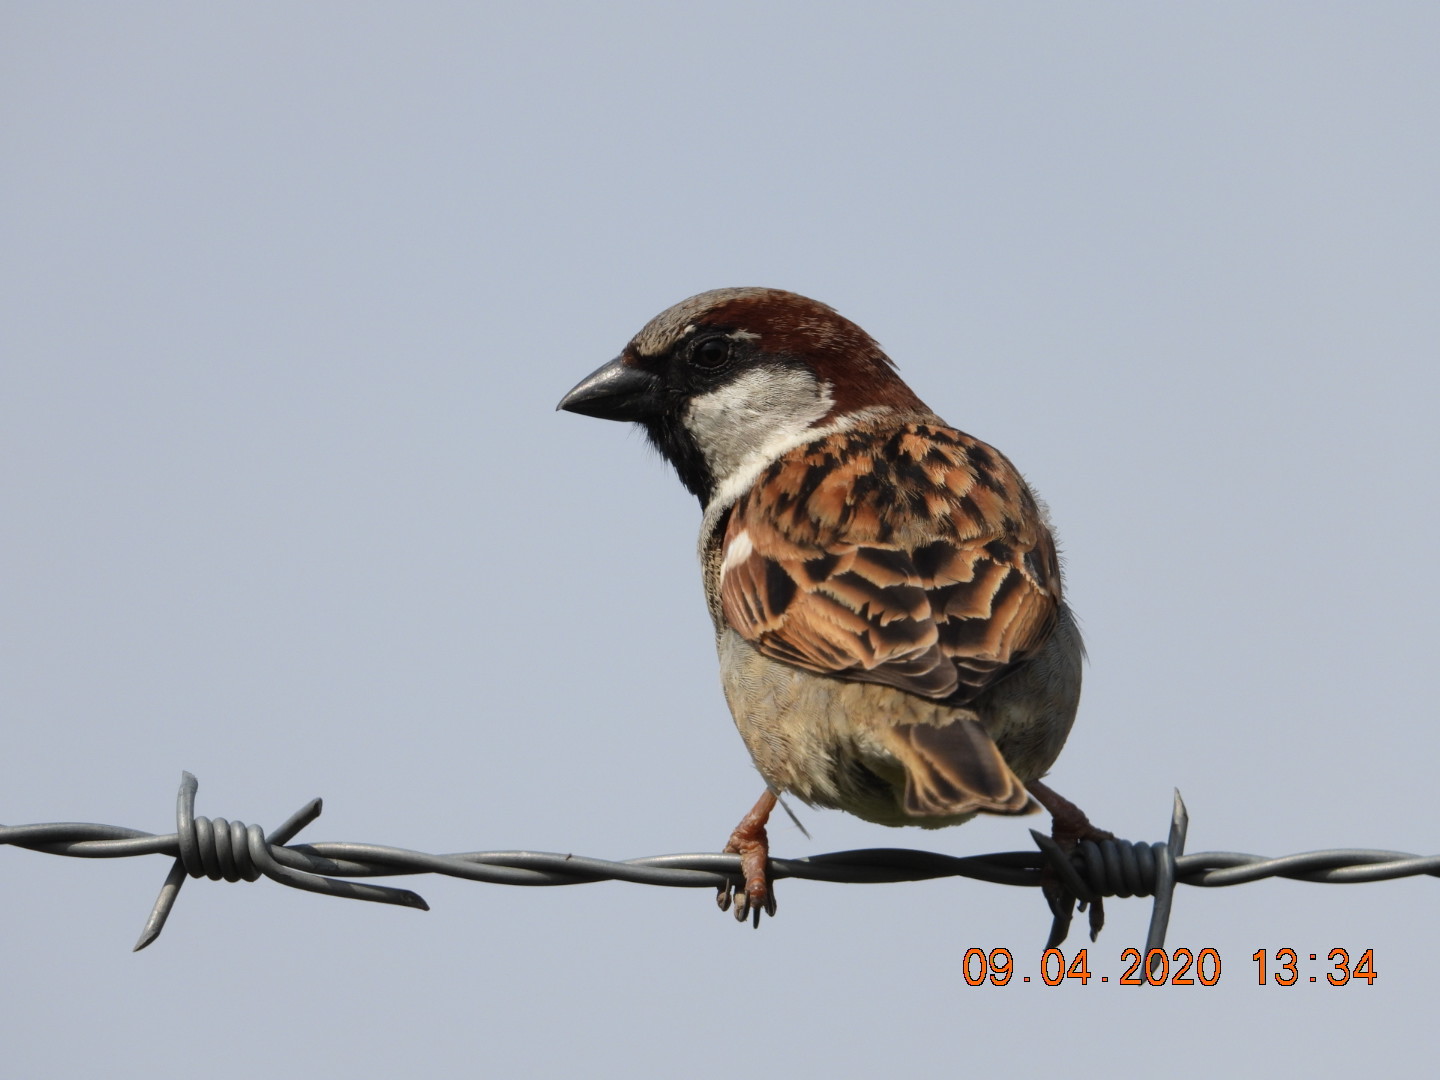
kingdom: Animalia
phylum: Chordata
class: Aves
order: Passeriformes
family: Passeridae
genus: Passer
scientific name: Passer domesticus
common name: House sparrow
